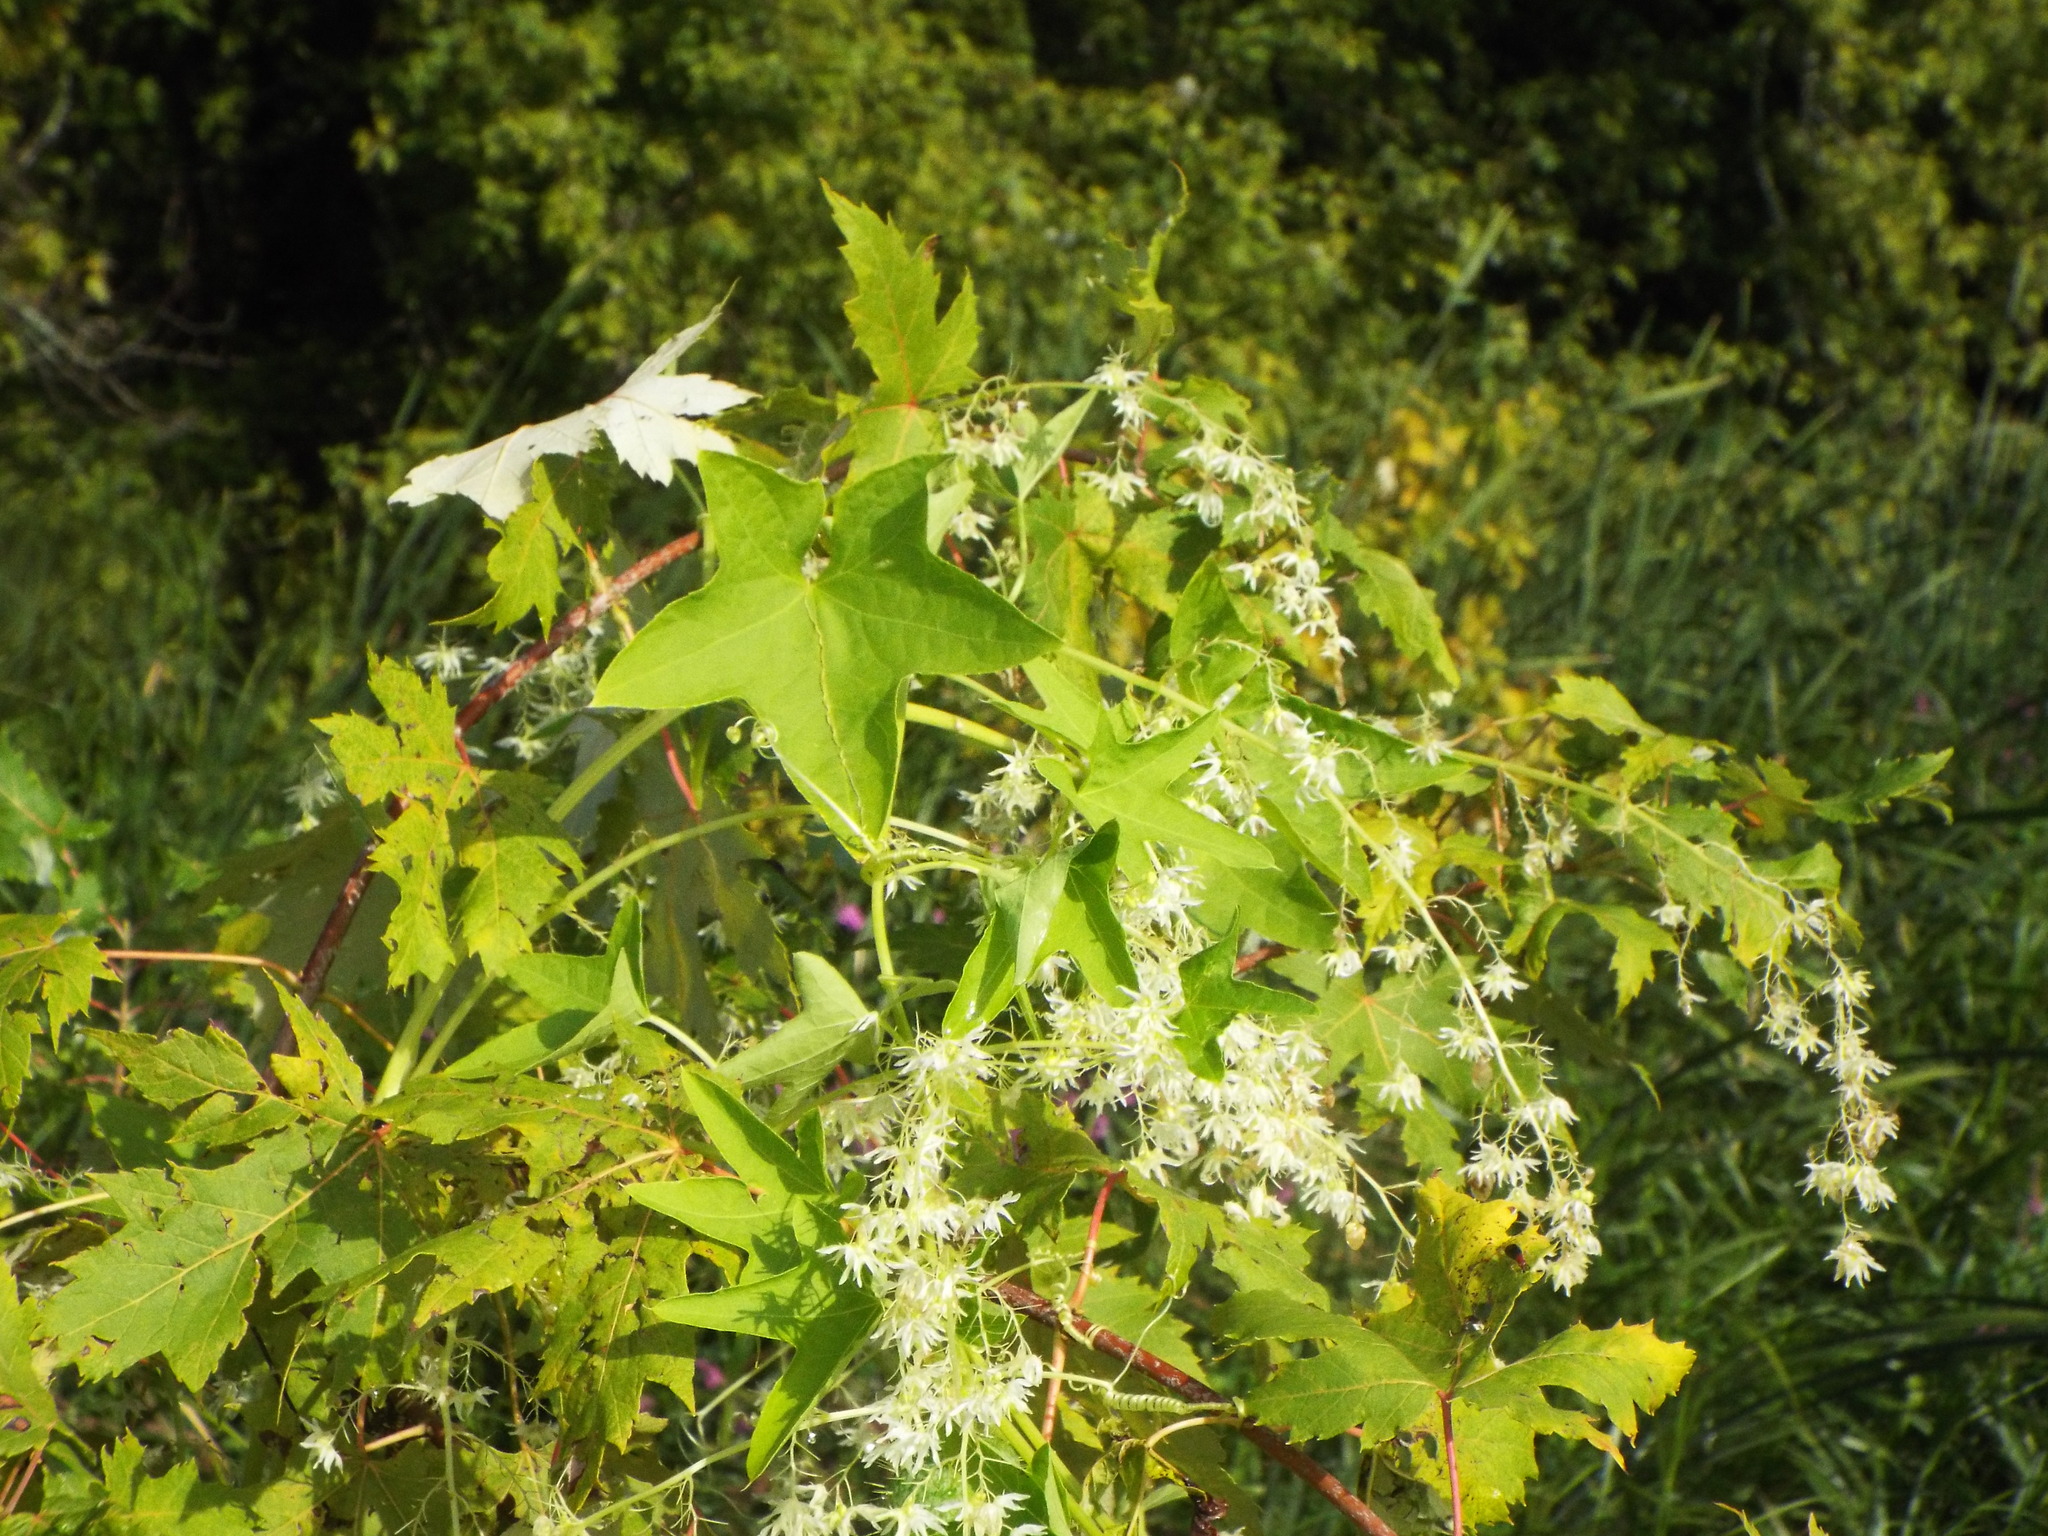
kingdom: Plantae
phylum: Tracheophyta
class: Magnoliopsida
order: Cucurbitales
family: Cucurbitaceae
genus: Echinocystis
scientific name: Echinocystis lobata
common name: Wild cucumber
